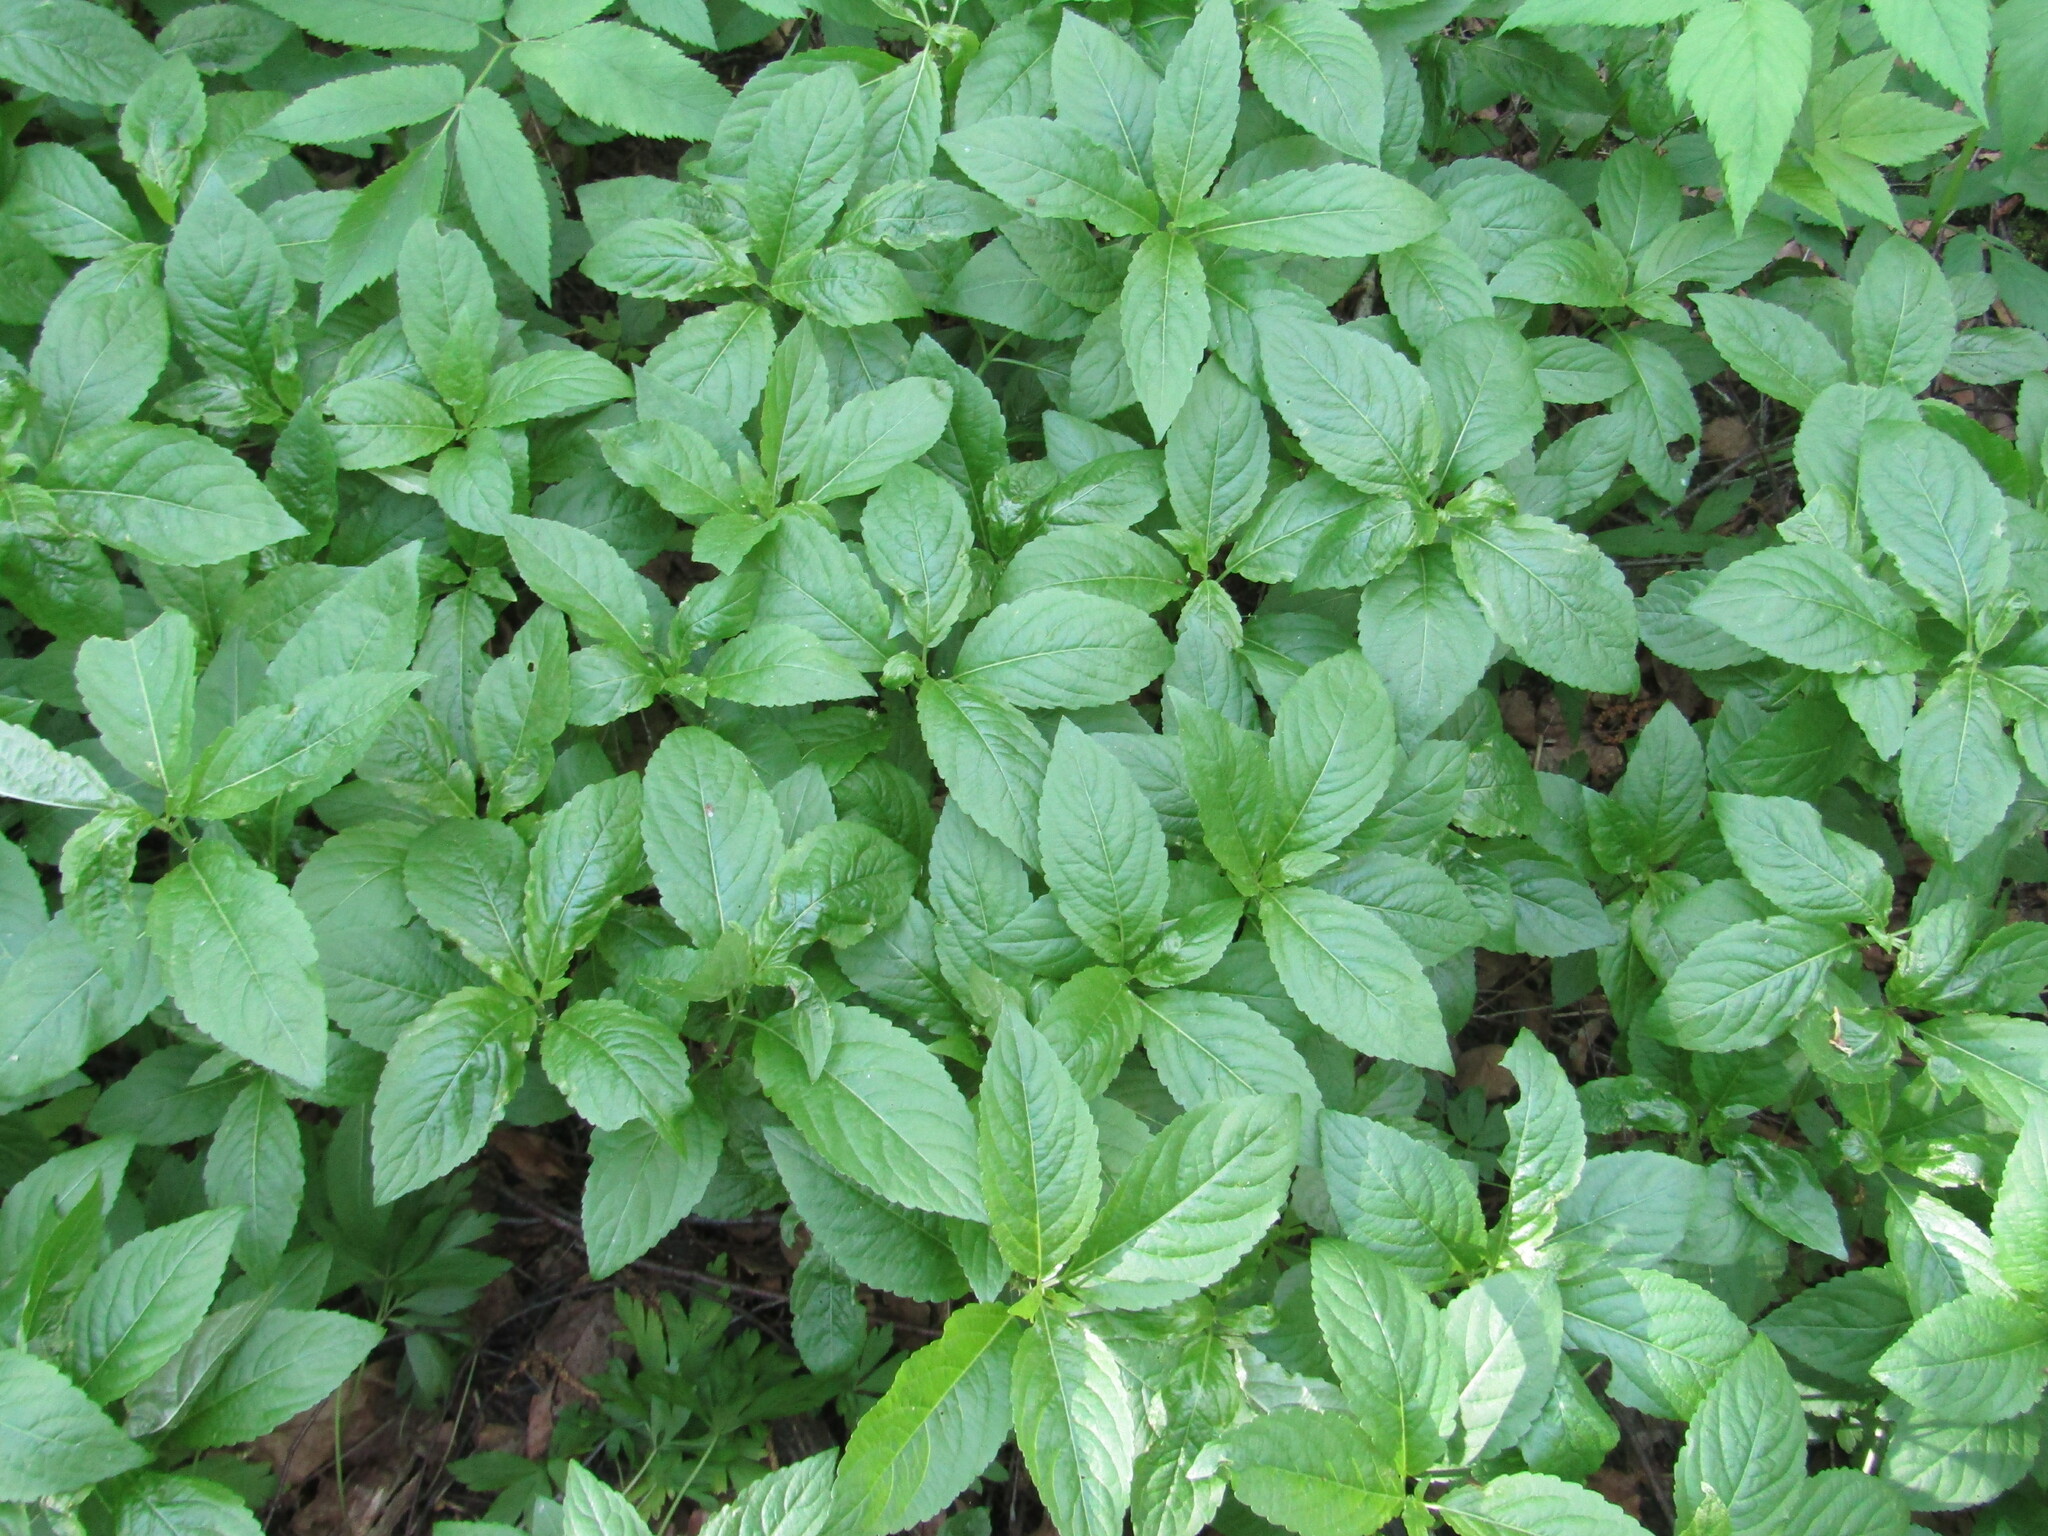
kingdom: Plantae
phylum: Tracheophyta
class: Magnoliopsida
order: Malpighiales
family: Euphorbiaceae
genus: Mercurialis
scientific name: Mercurialis perennis
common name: Dog mercury
